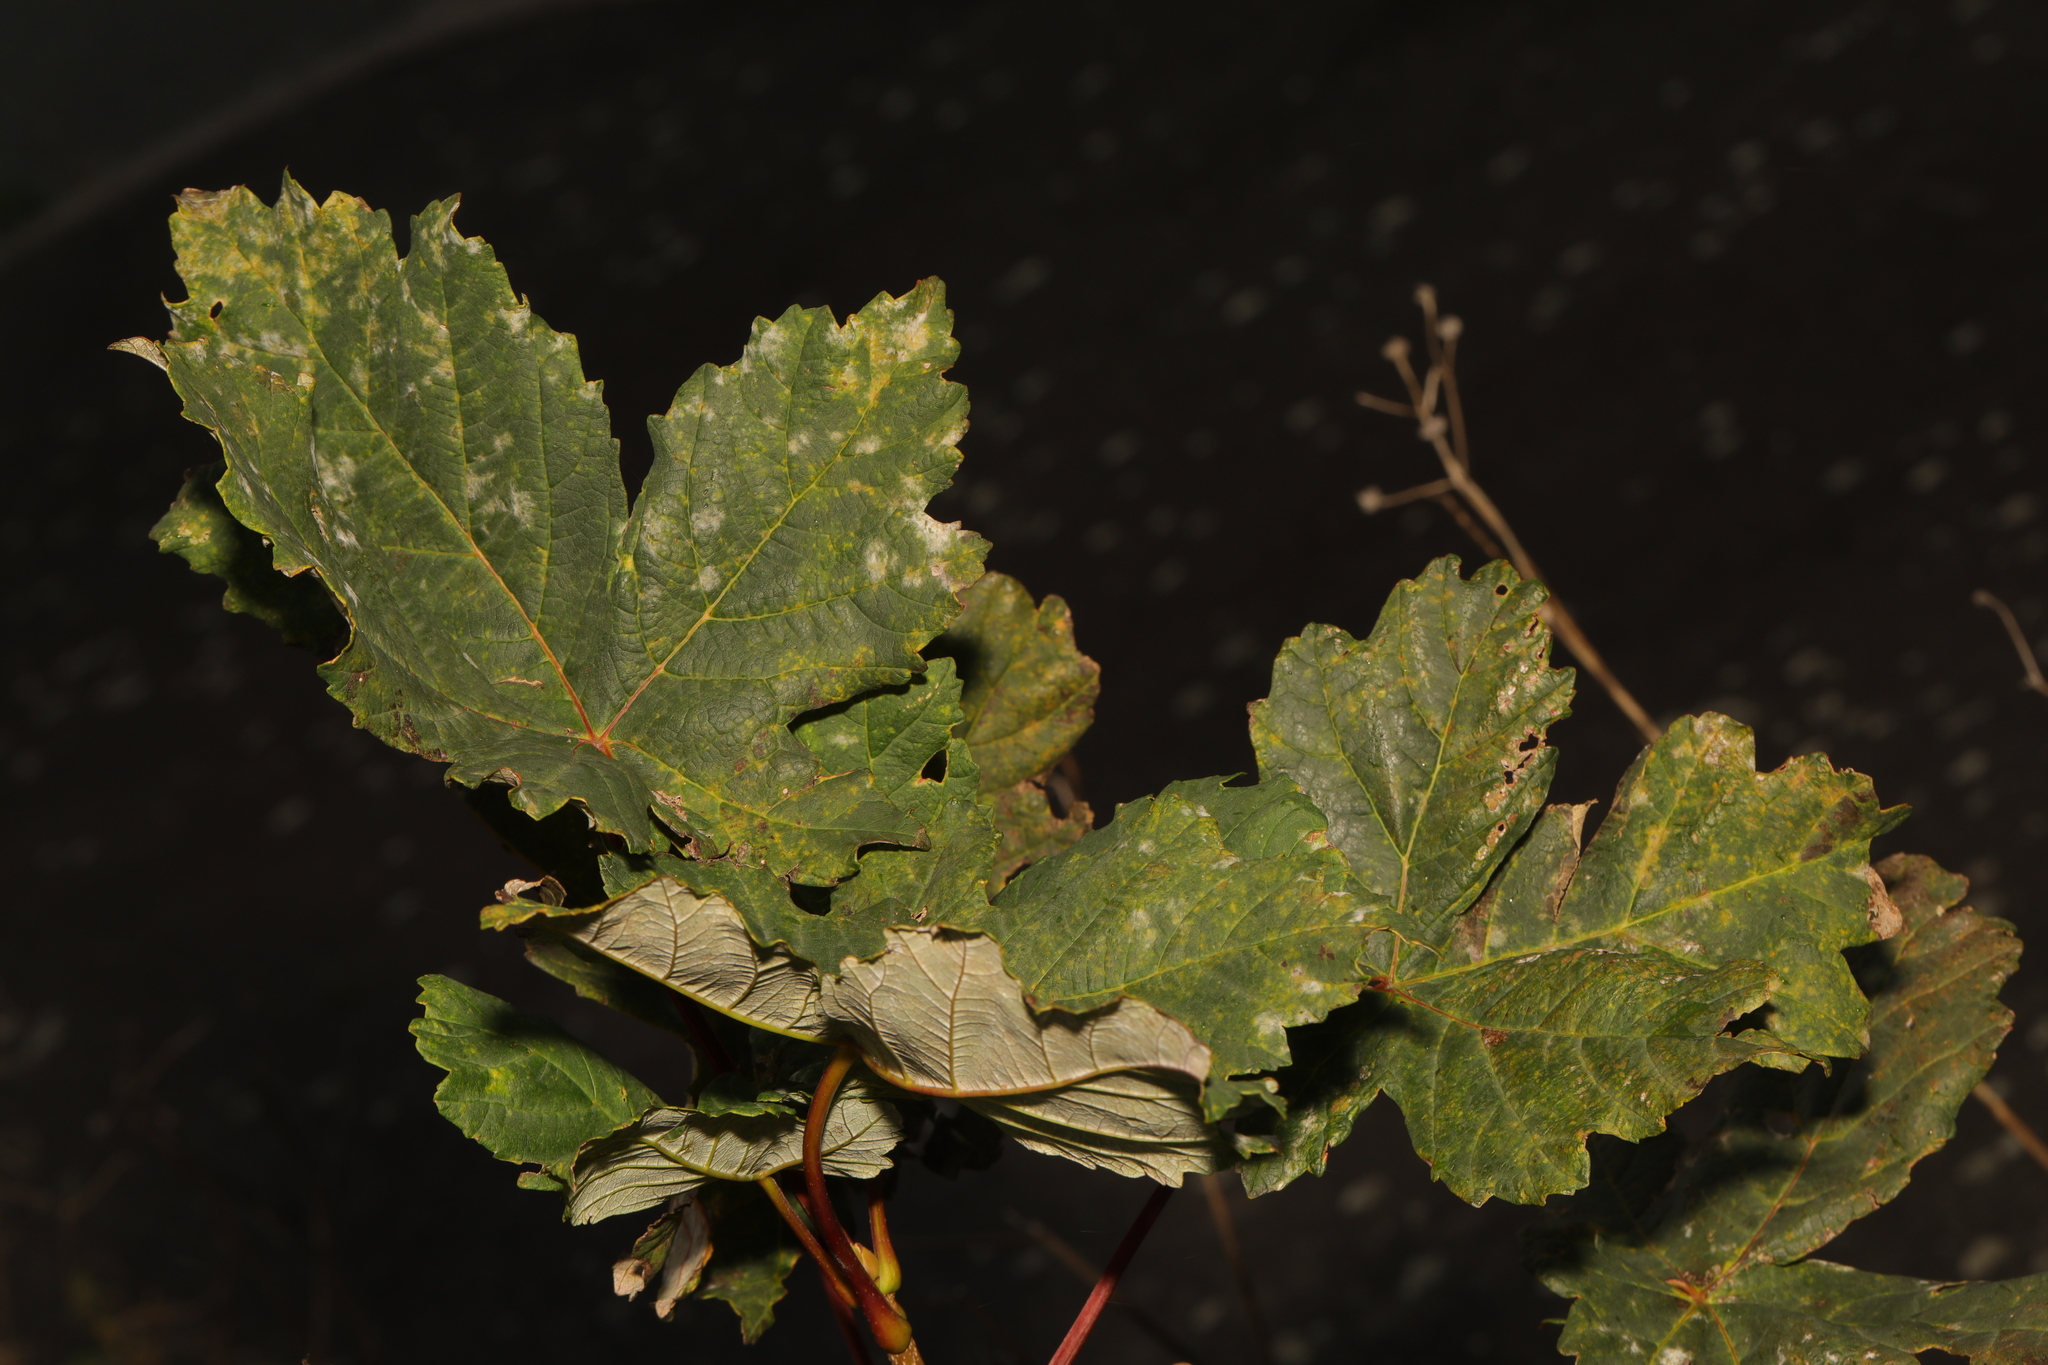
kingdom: Plantae
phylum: Tracheophyta
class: Magnoliopsida
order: Sapindales
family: Sapindaceae
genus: Acer
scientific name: Acer pseudoplatanus
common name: Sycamore
